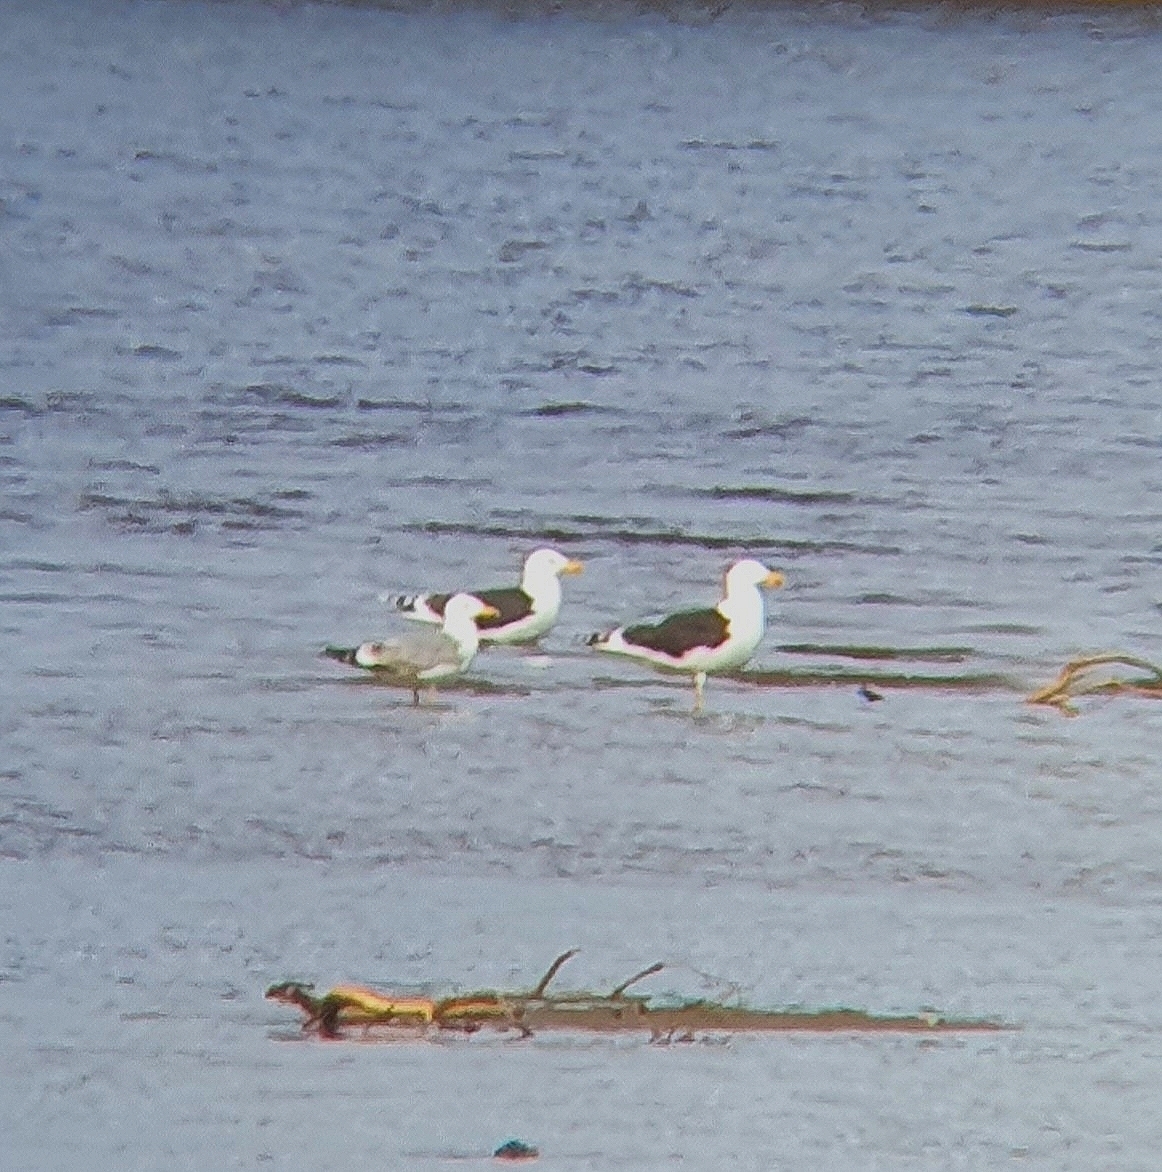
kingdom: Animalia
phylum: Chordata
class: Aves
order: Charadriiformes
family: Laridae
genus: Larus
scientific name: Larus marinus
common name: Great black-backed gull
